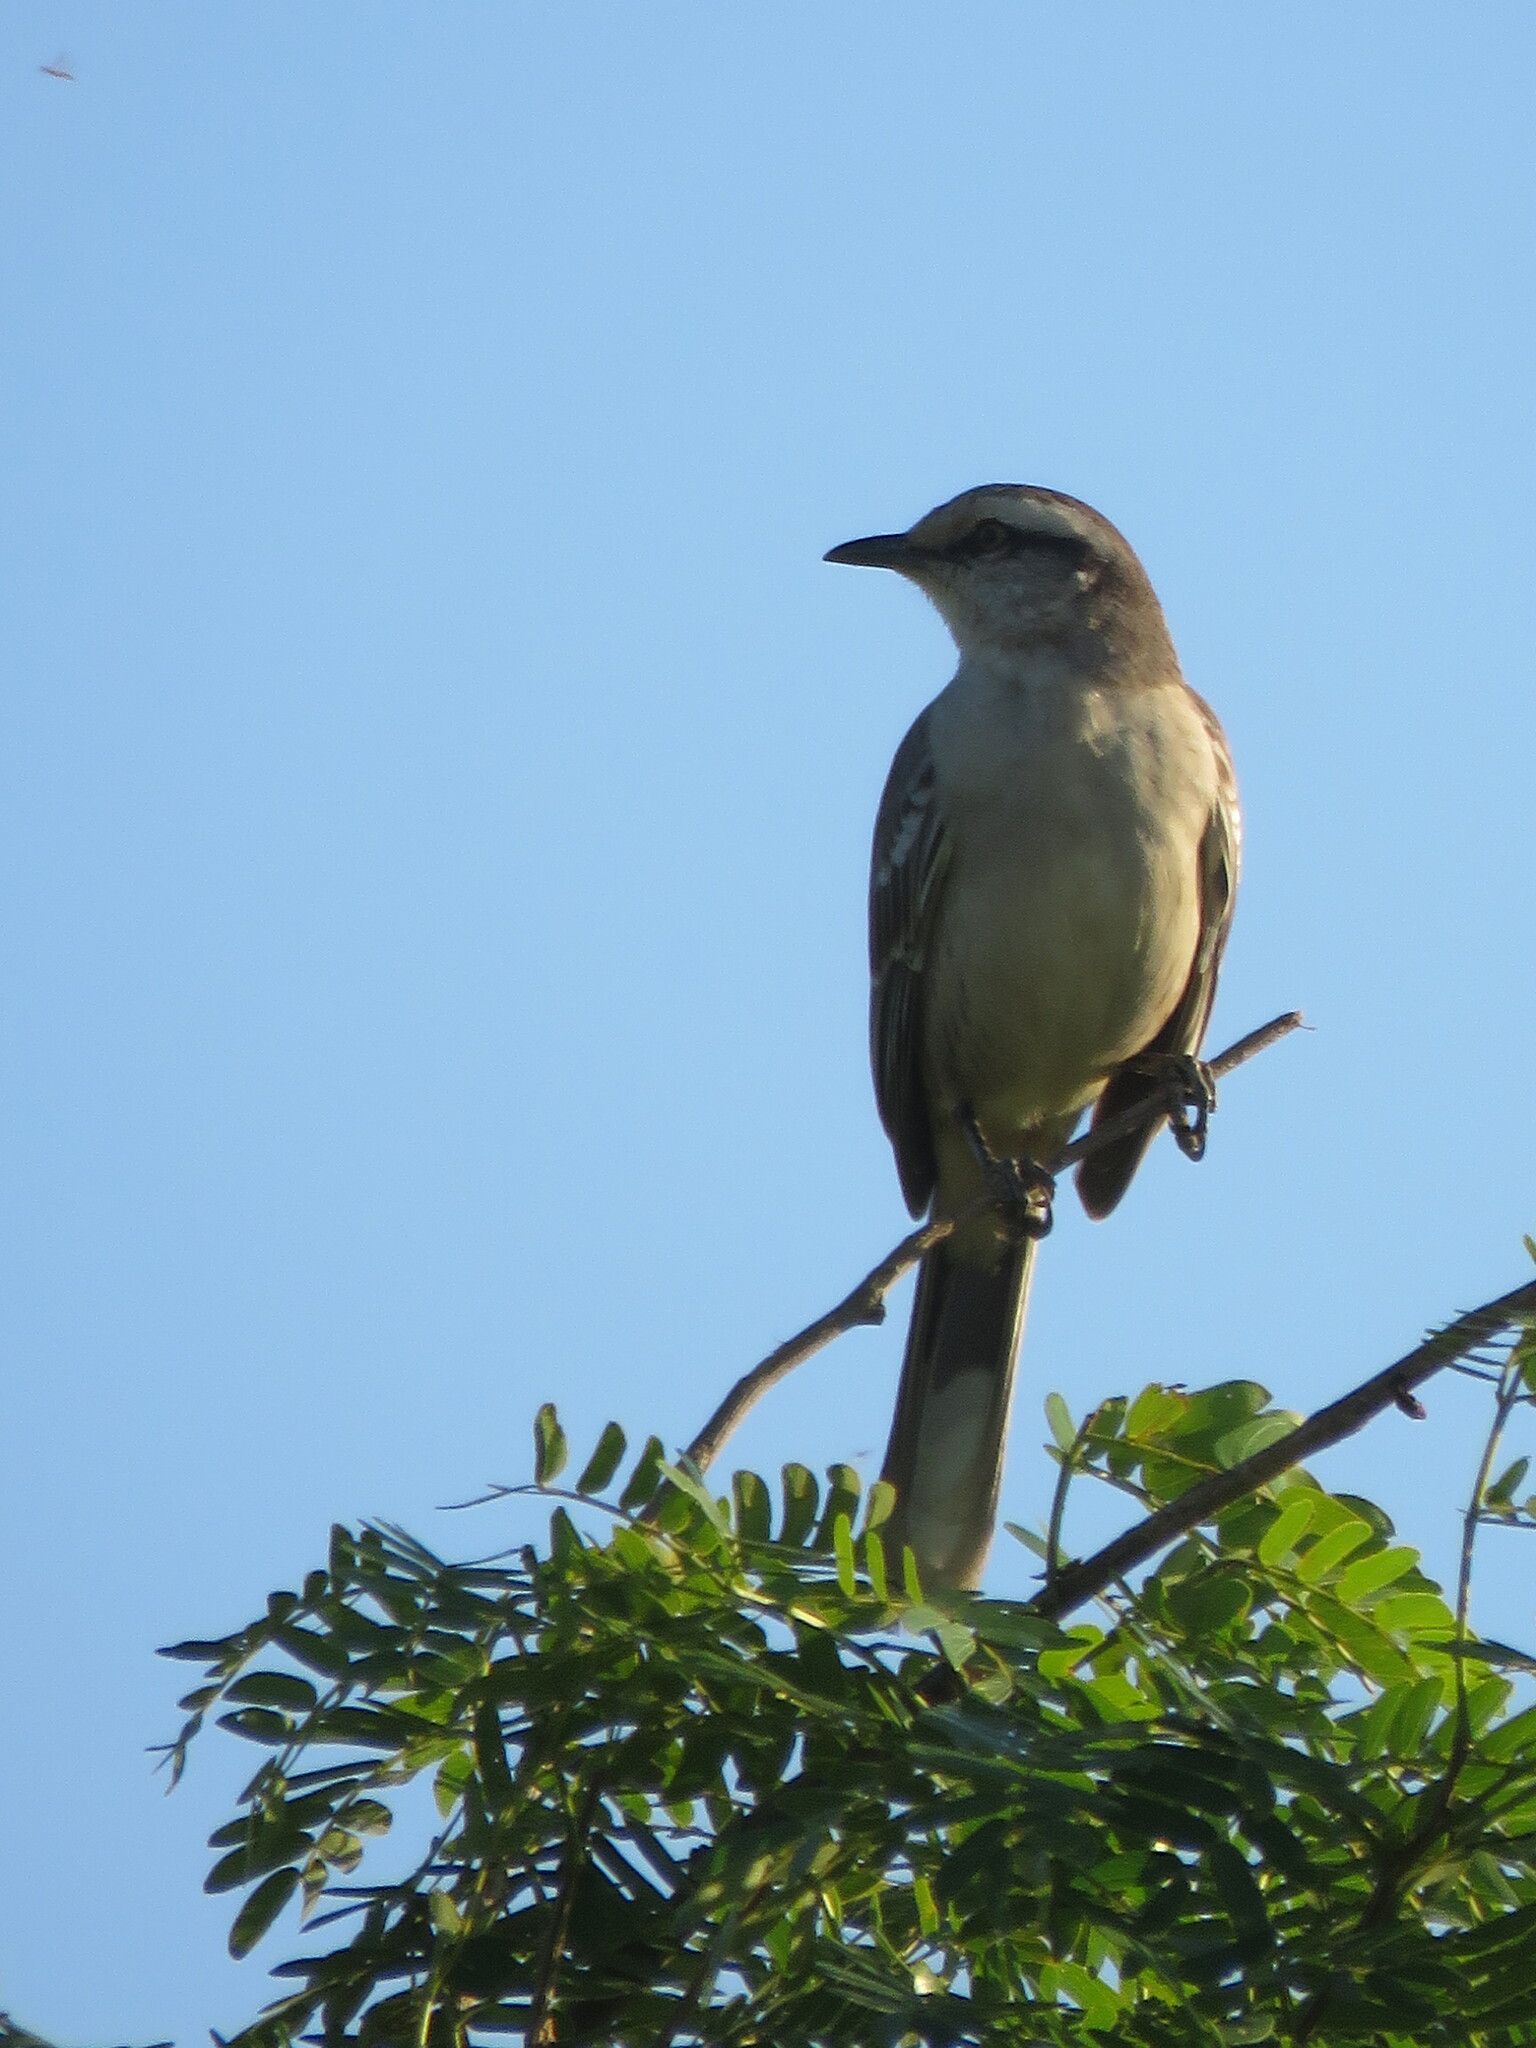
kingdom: Animalia
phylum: Chordata
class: Aves
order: Passeriformes
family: Mimidae
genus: Mimus
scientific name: Mimus saturninus
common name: Chalk-browed mockingbird
